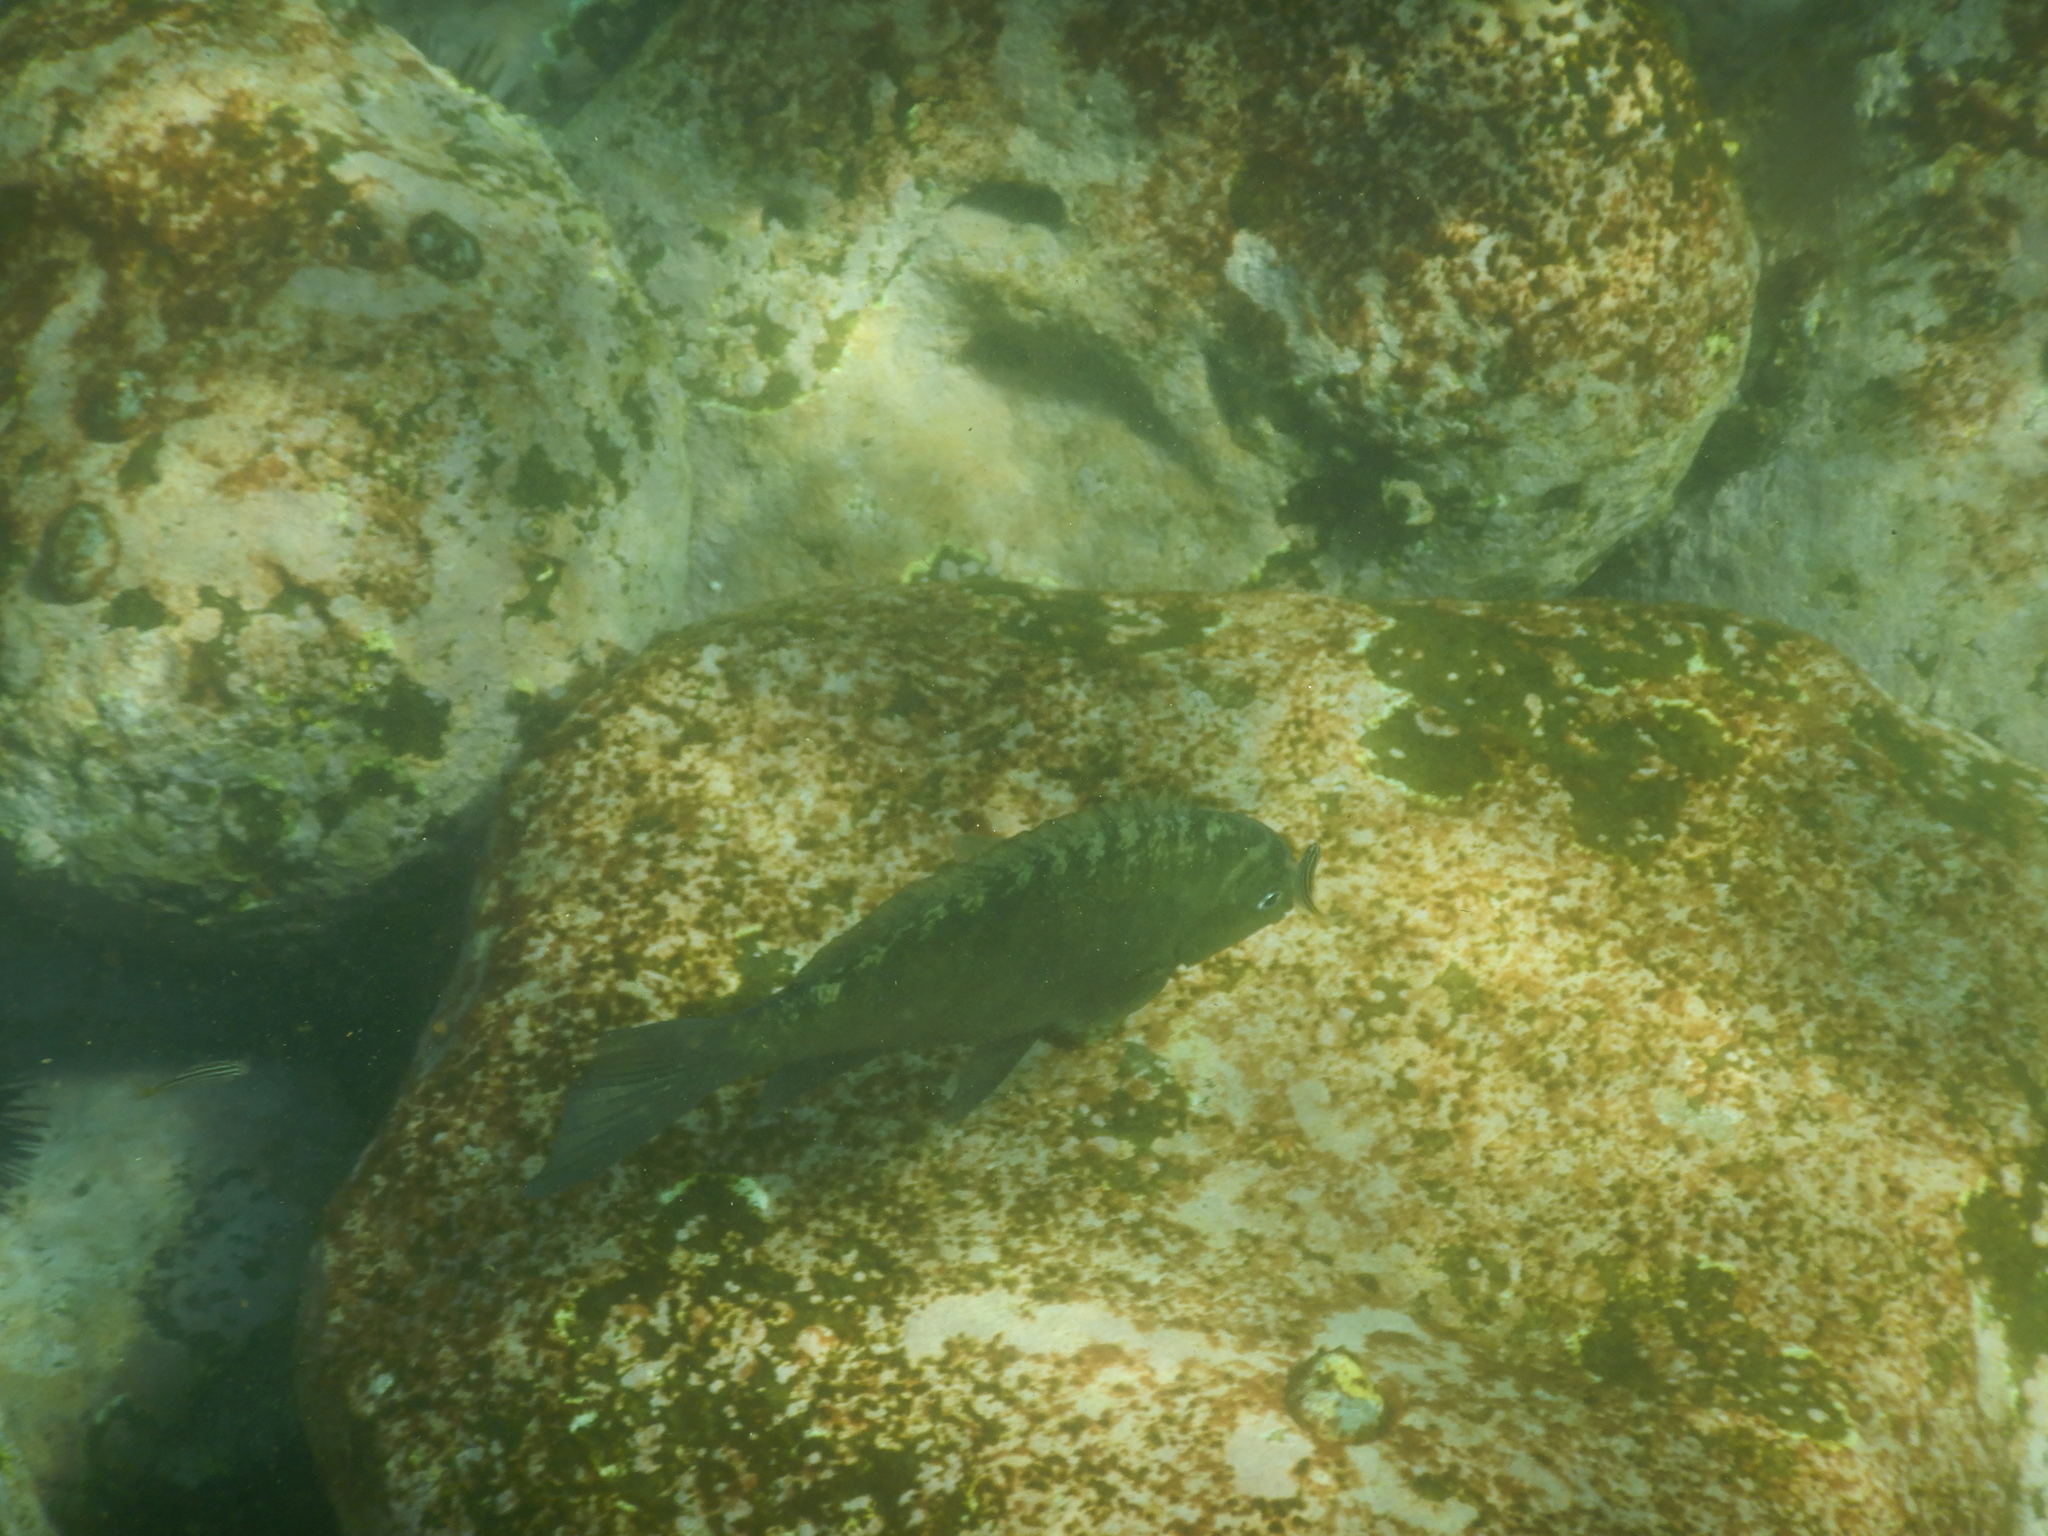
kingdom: Animalia
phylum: Chordata
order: Perciformes
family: Kyphosidae
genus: Girella
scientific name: Girella tricuspidata
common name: Parore
